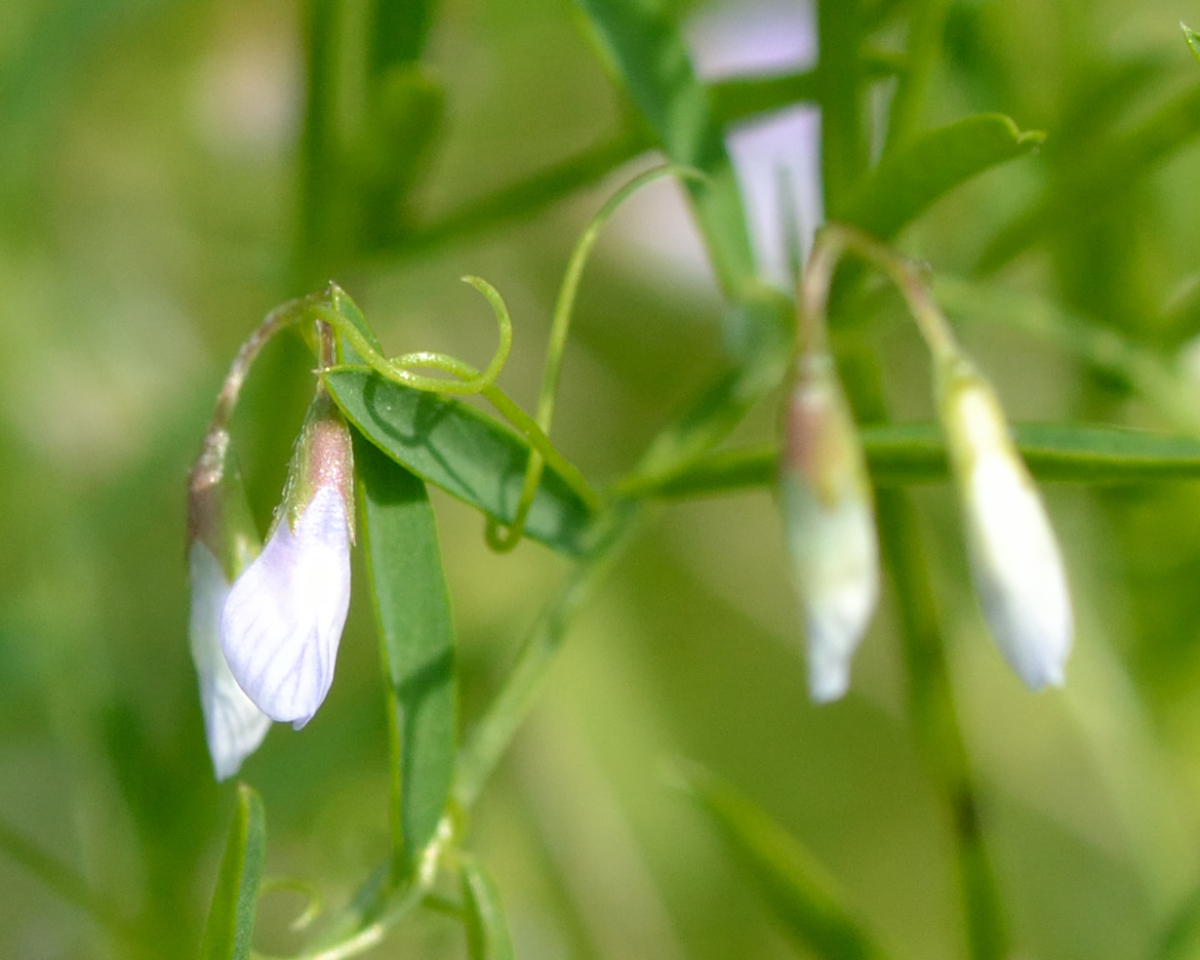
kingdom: Plantae
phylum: Tracheophyta
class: Magnoliopsida
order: Fabales
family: Fabaceae
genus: Vicia
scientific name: Vicia tetrasperma
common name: Smooth tare
